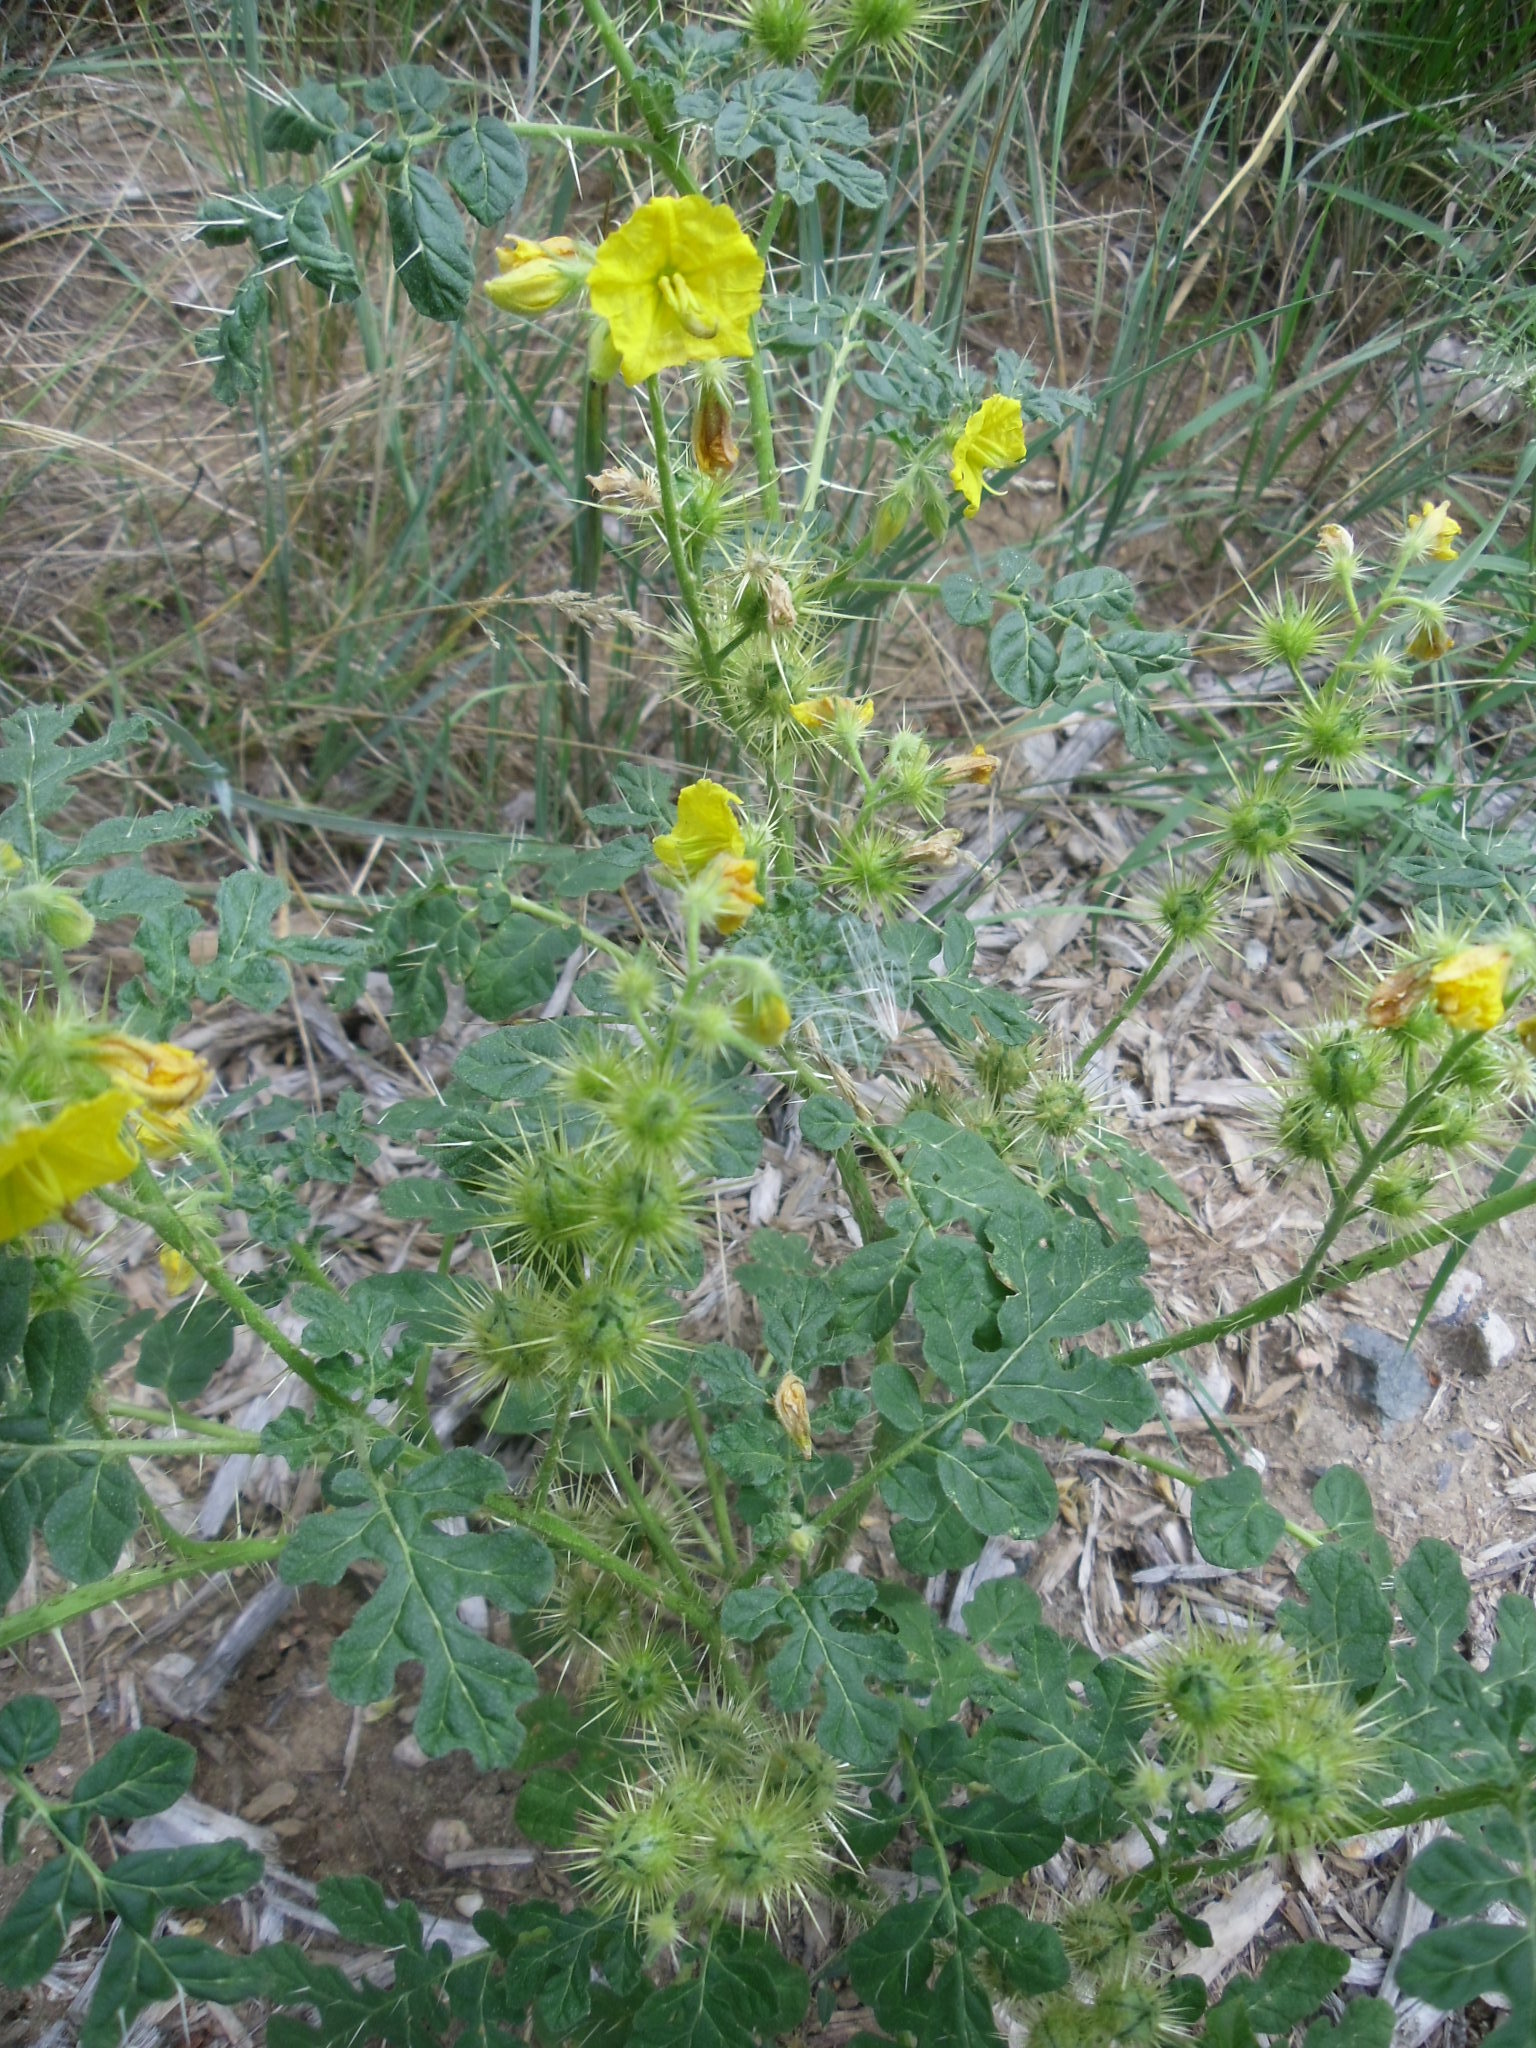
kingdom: Plantae
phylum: Tracheophyta
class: Magnoliopsida
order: Solanales
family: Solanaceae
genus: Solanum
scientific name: Solanum angustifolium
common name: Buffalobur nightshade
